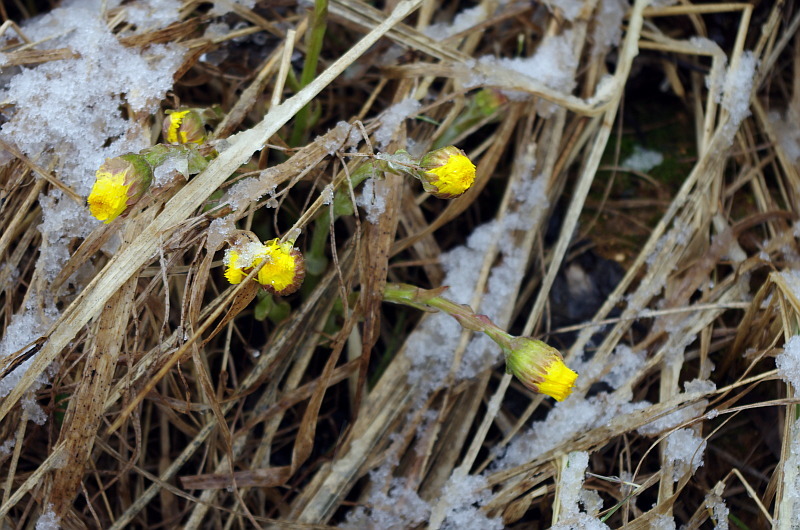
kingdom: Plantae
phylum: Tracheophyta
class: Magnoliopsida
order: Asterales
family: Asteraceae
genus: Tussilago
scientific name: Tussilago farfara
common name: Coltsfoot
